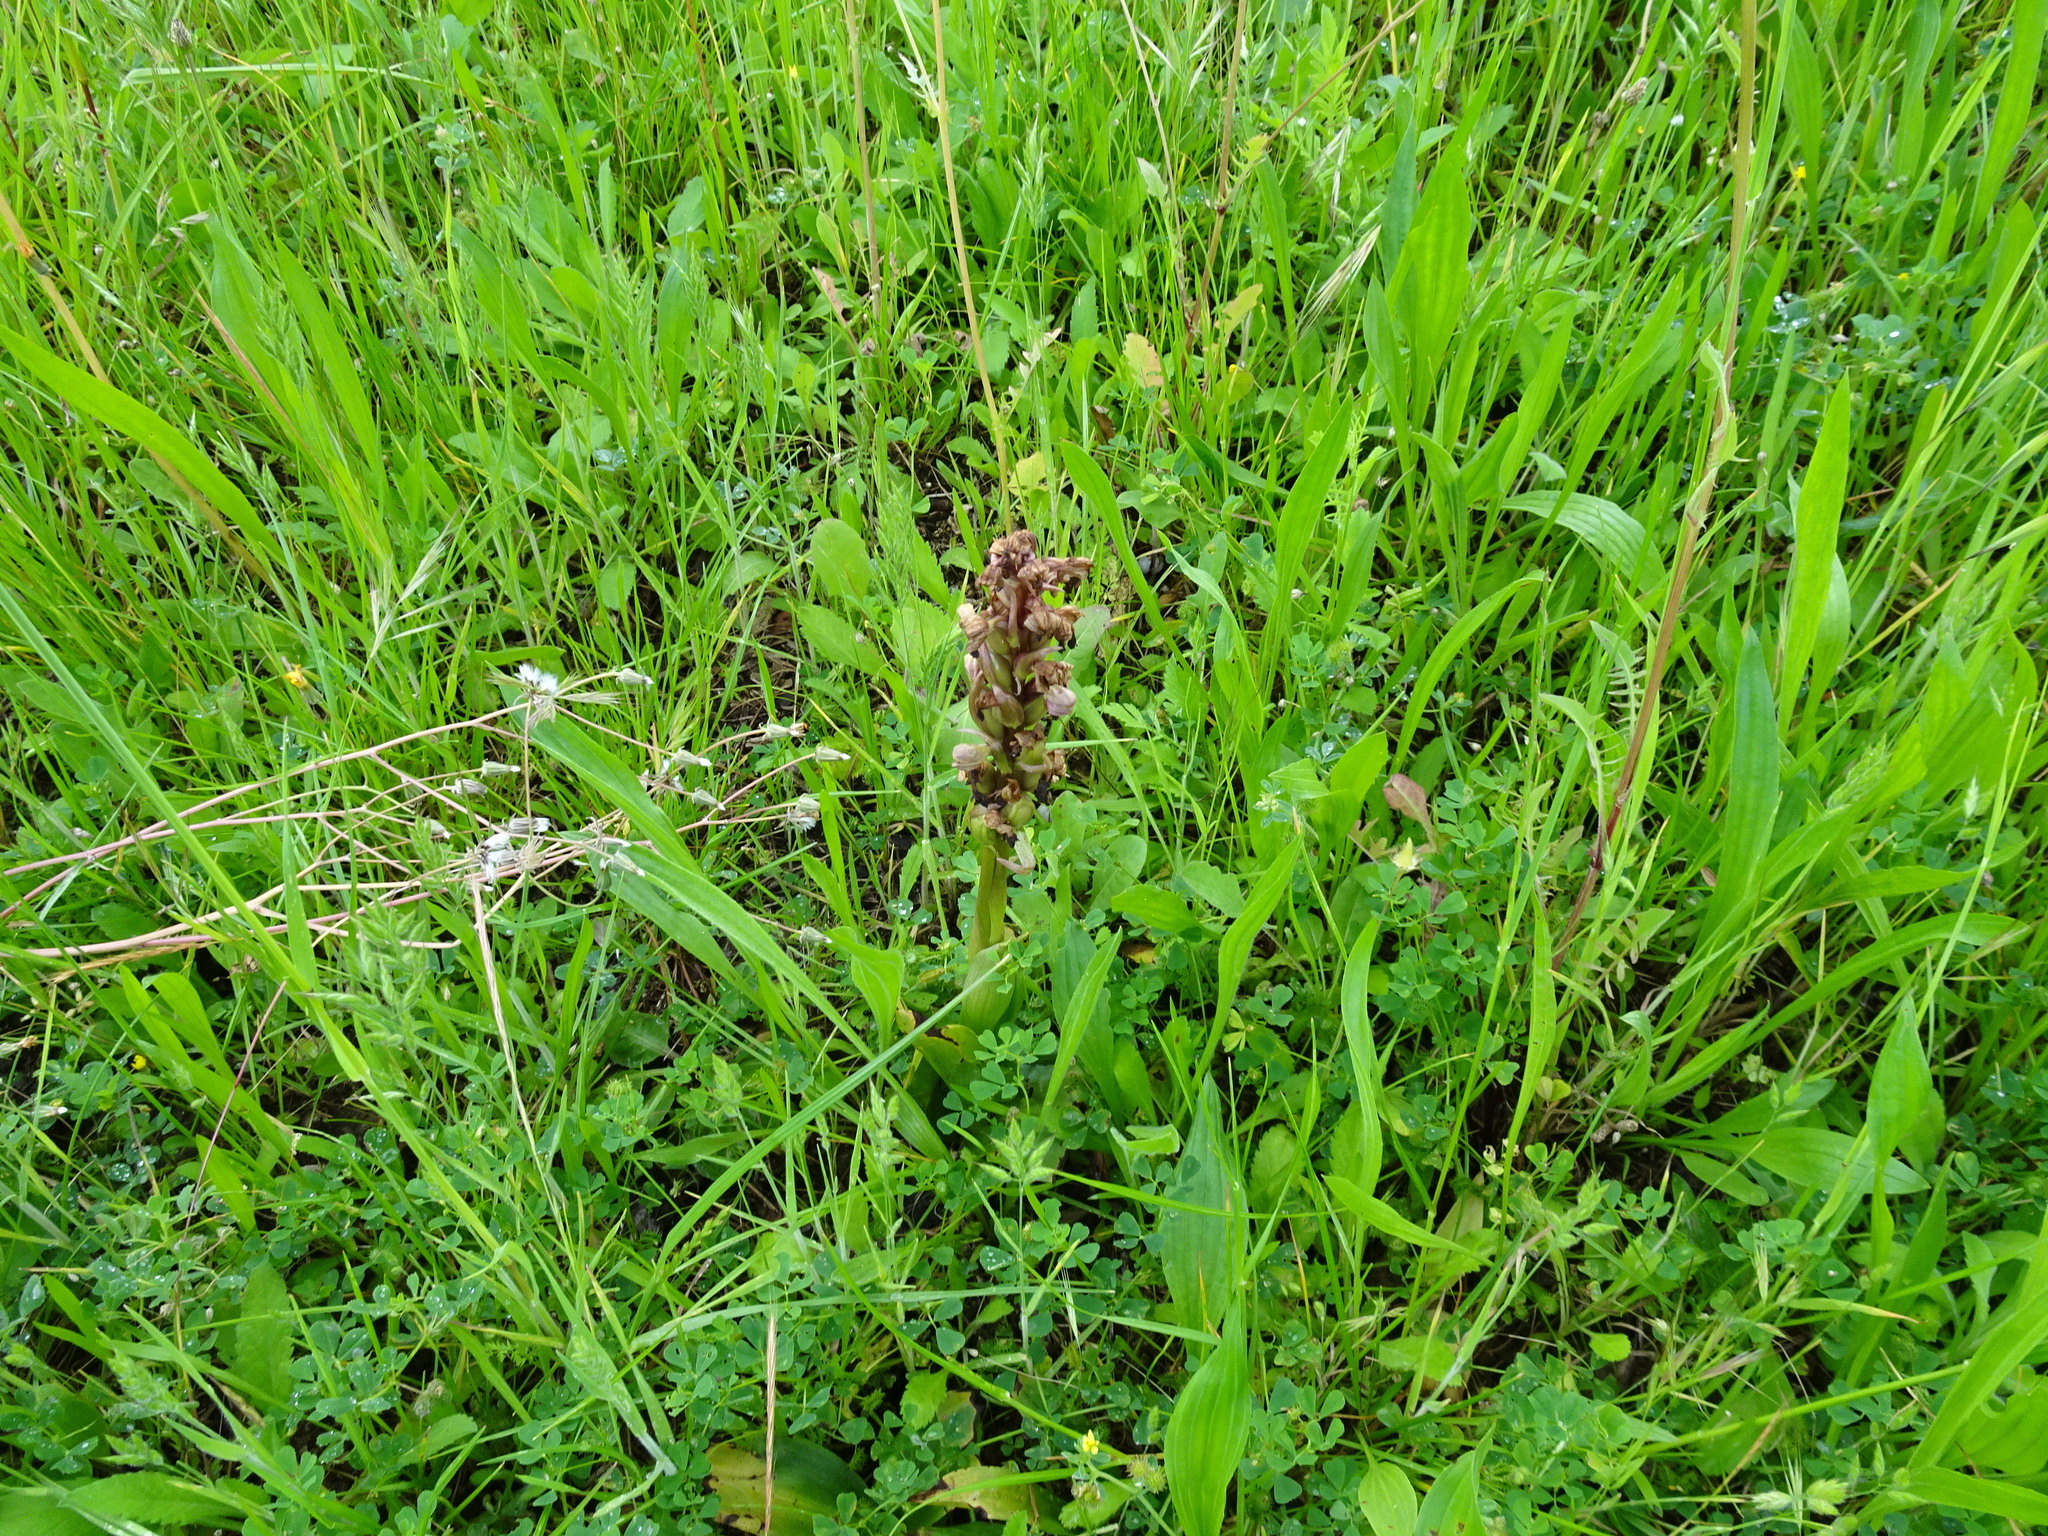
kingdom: Plantae
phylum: Tracheophyta
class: Liliopsida
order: Asparagales
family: Orchidaceae
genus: Himantoglossum
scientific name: Himantoglossum robertianum
